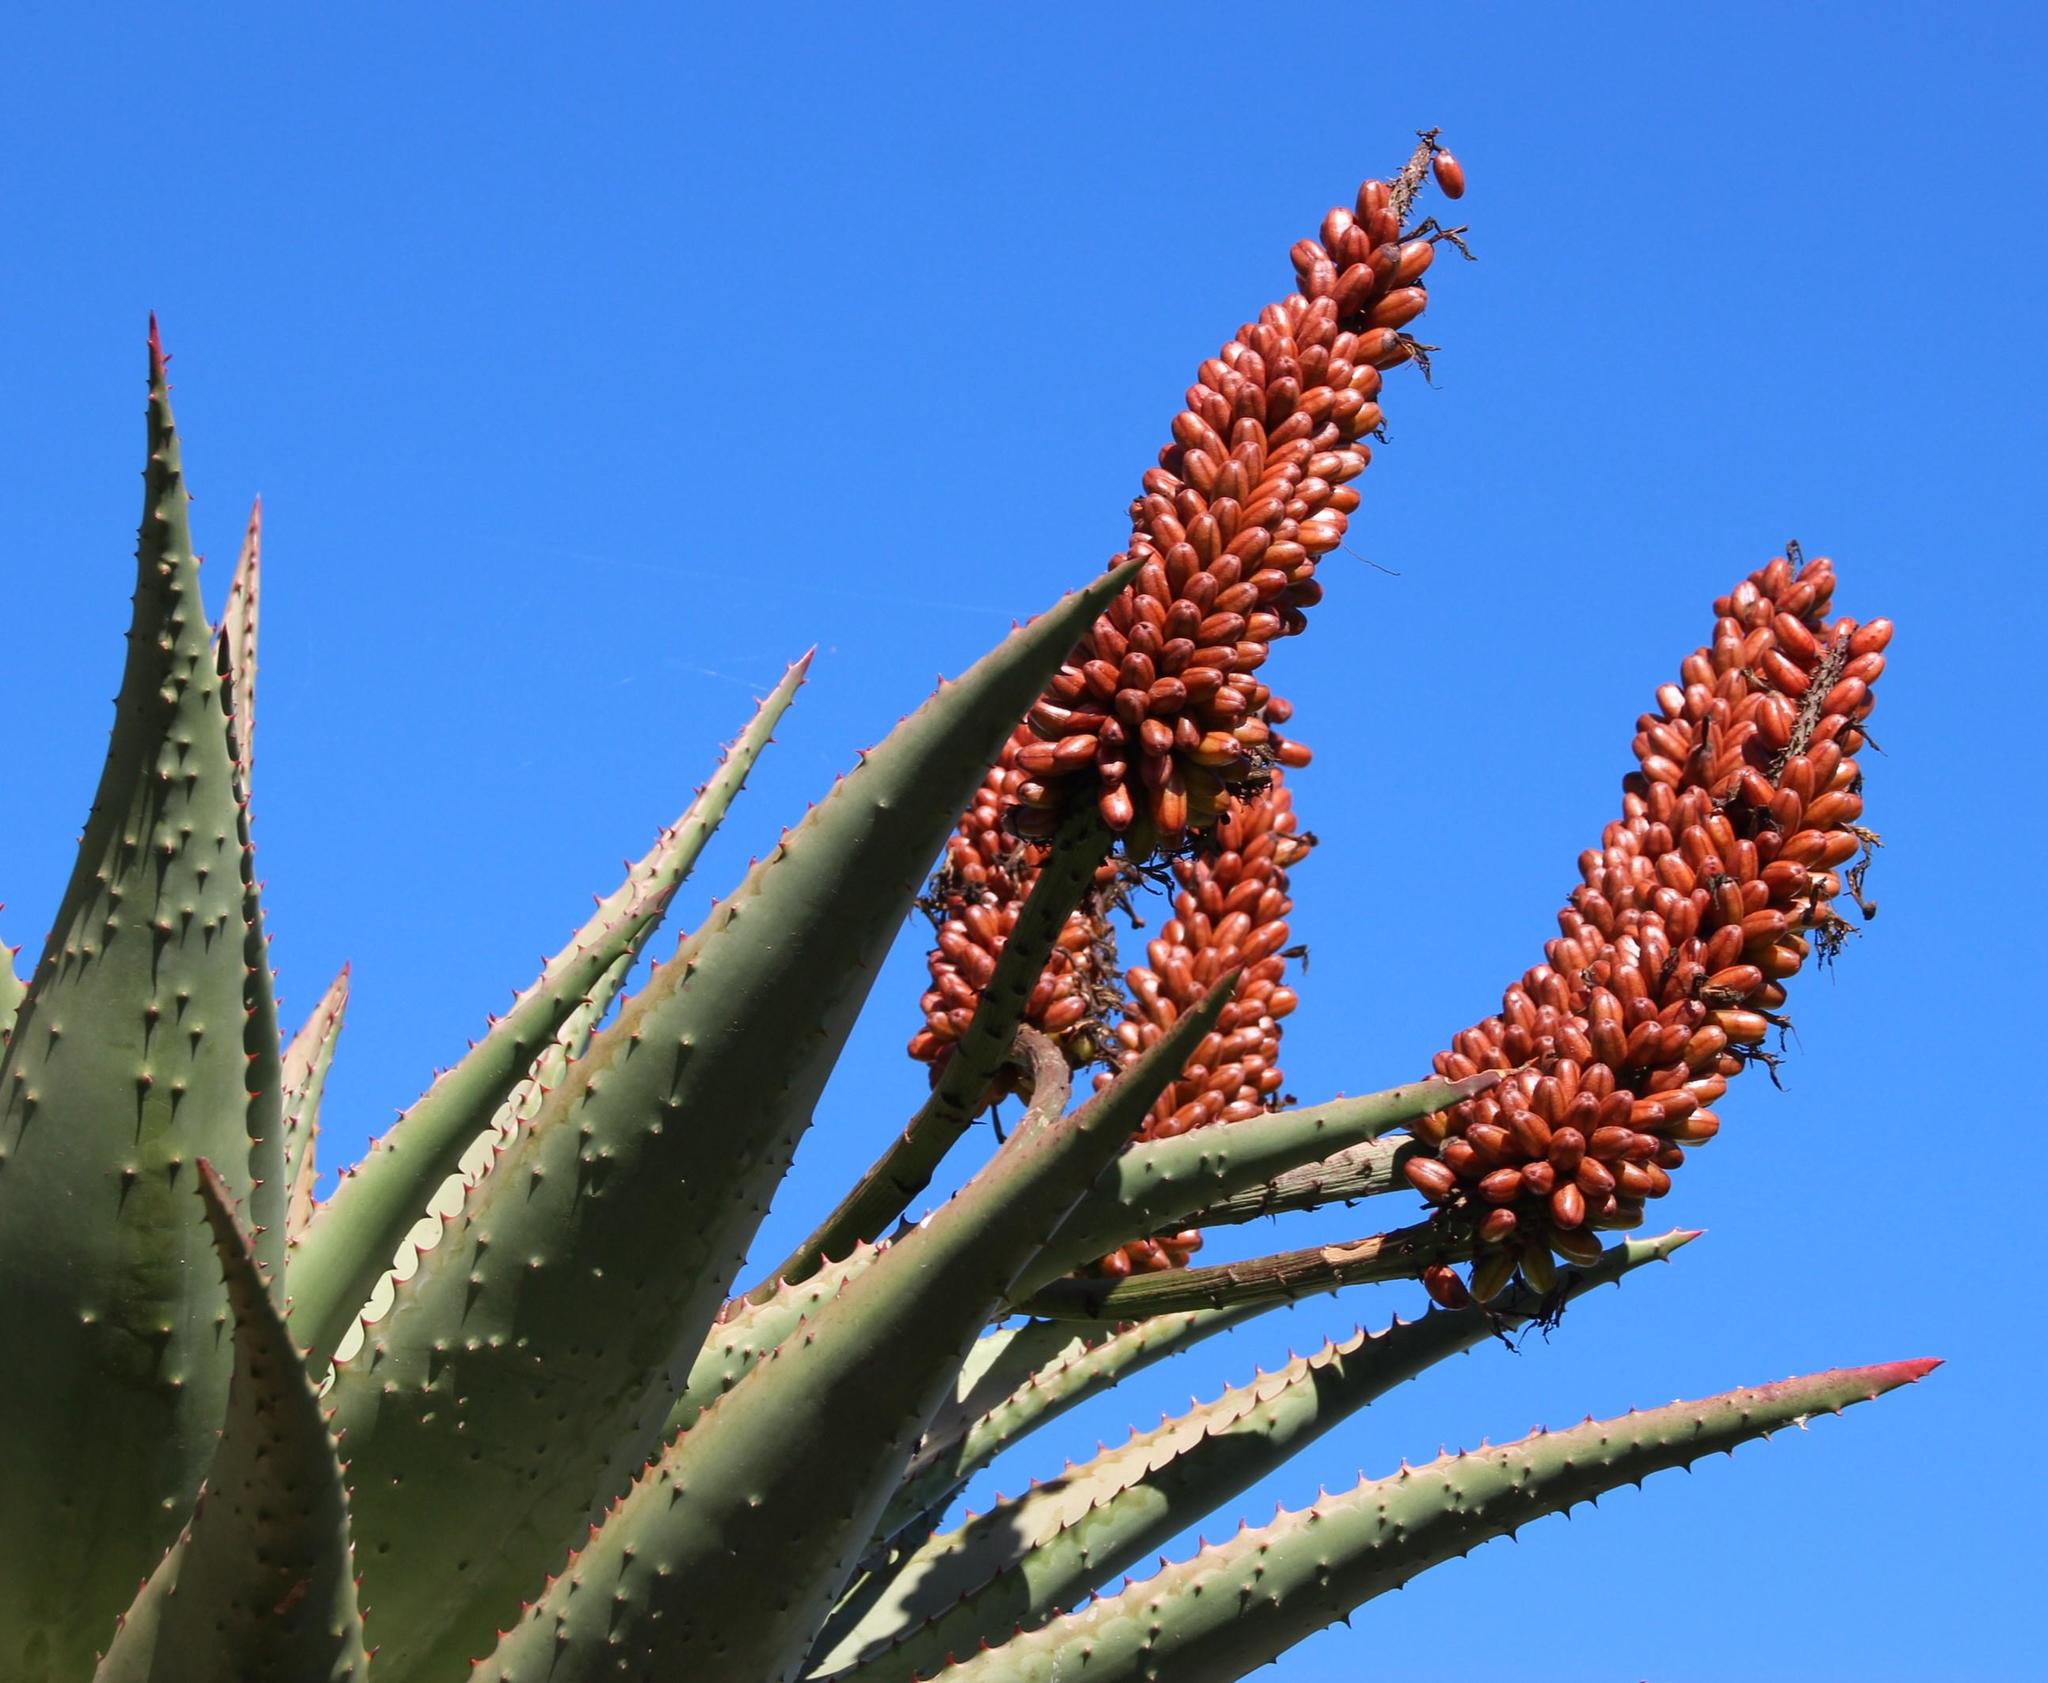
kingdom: Plantae
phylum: Tracheophyta
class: Liliopsida
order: Asparagales
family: Asphodelaceae
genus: Aloe
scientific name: Aloe ferox
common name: Bitter aloe
